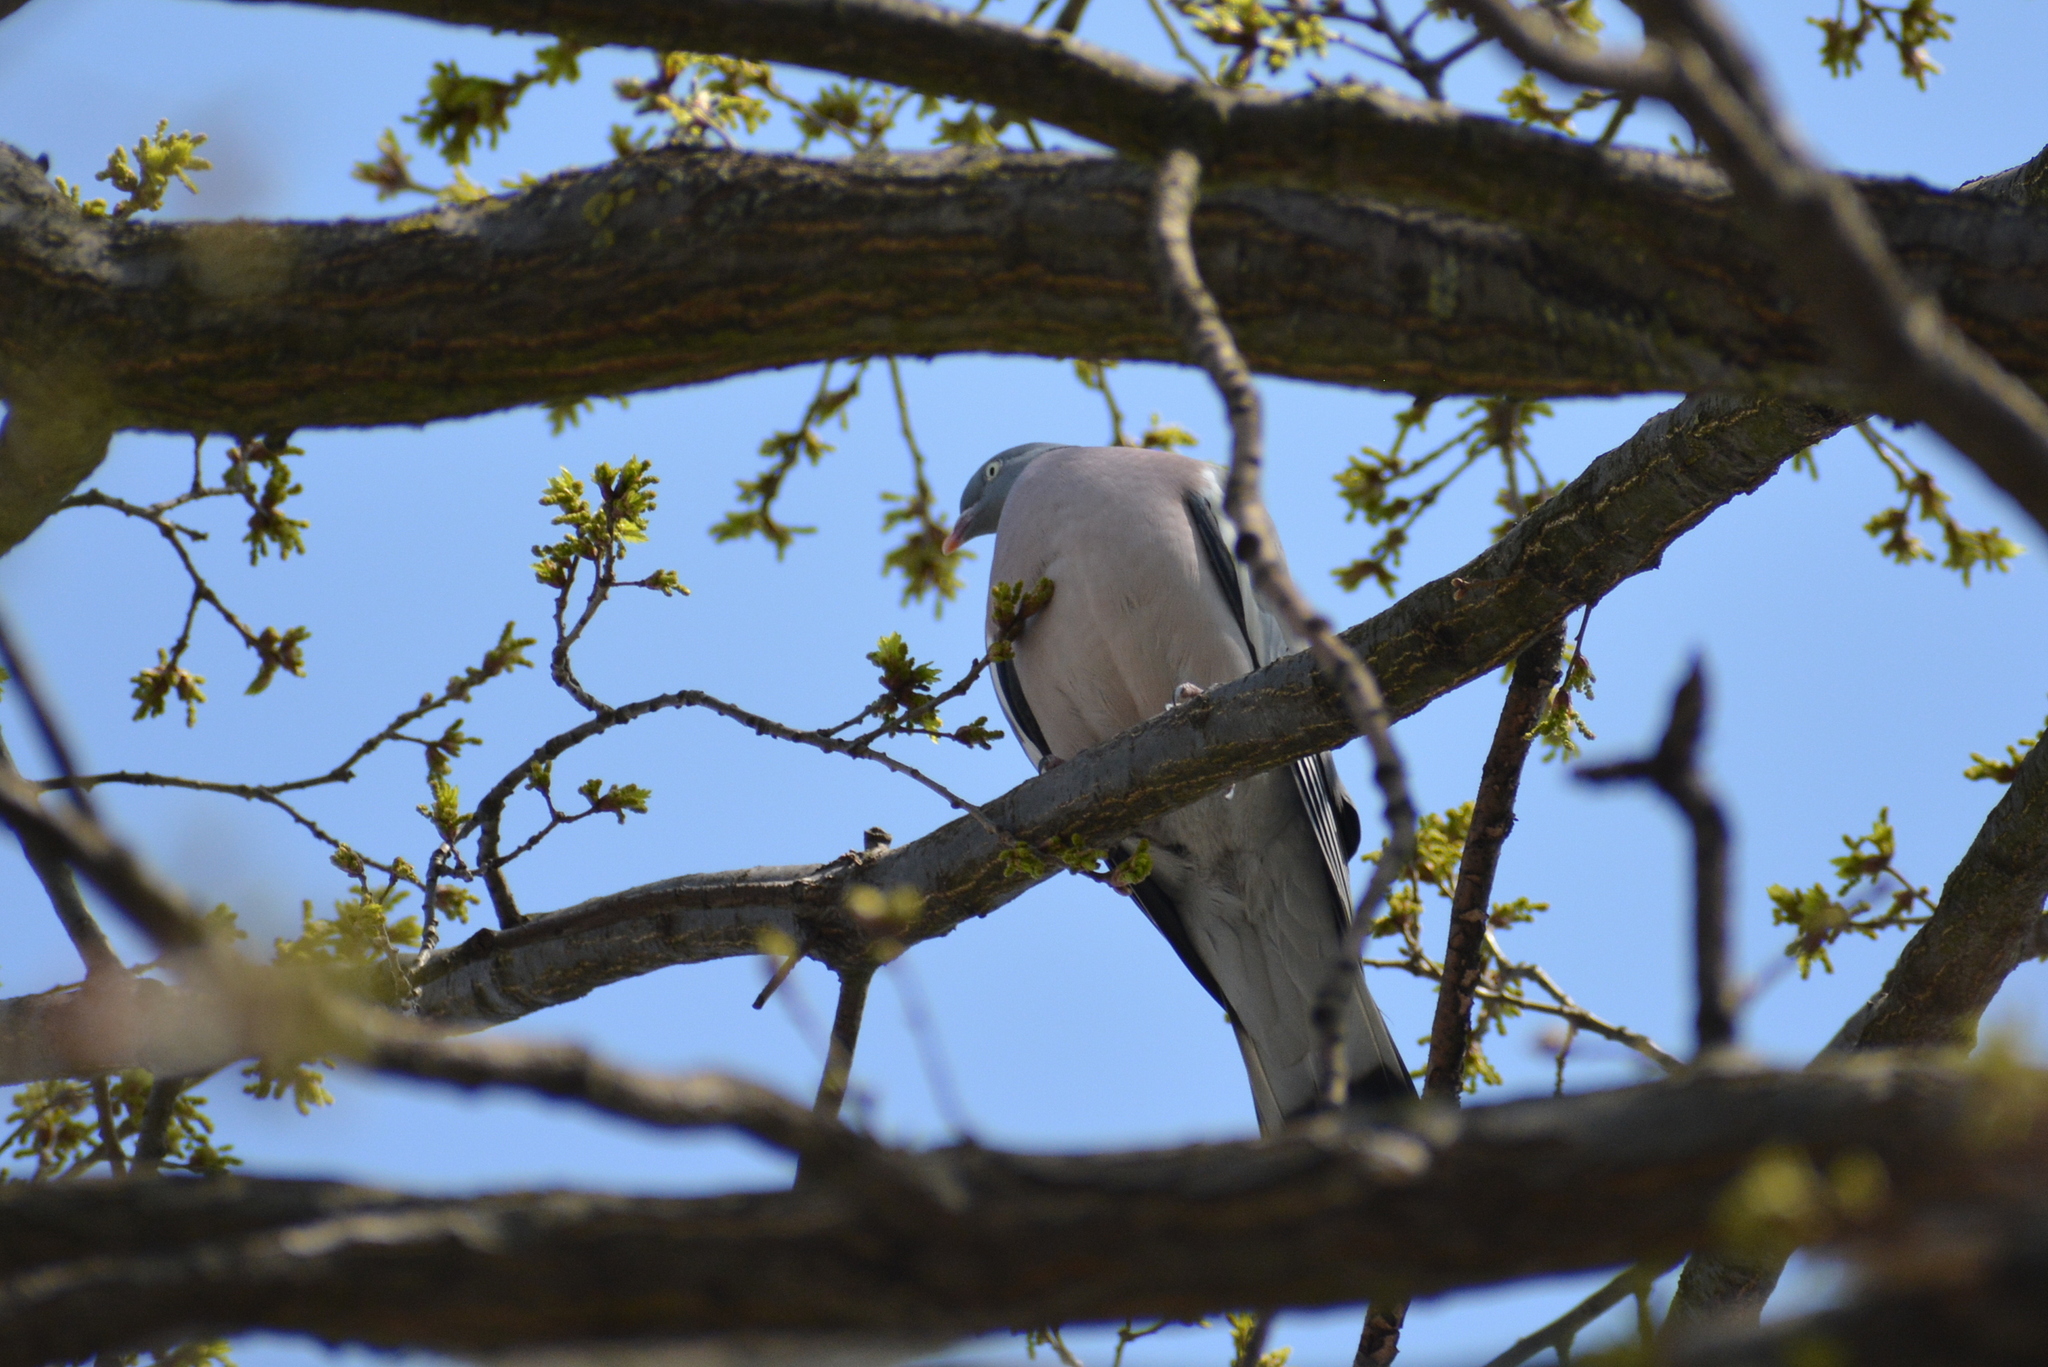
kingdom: Animalia
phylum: Chordata
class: Aves
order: Columbiformes
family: Columbidae
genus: Columba
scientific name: Columba palumbus
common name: Common wood pigeon
